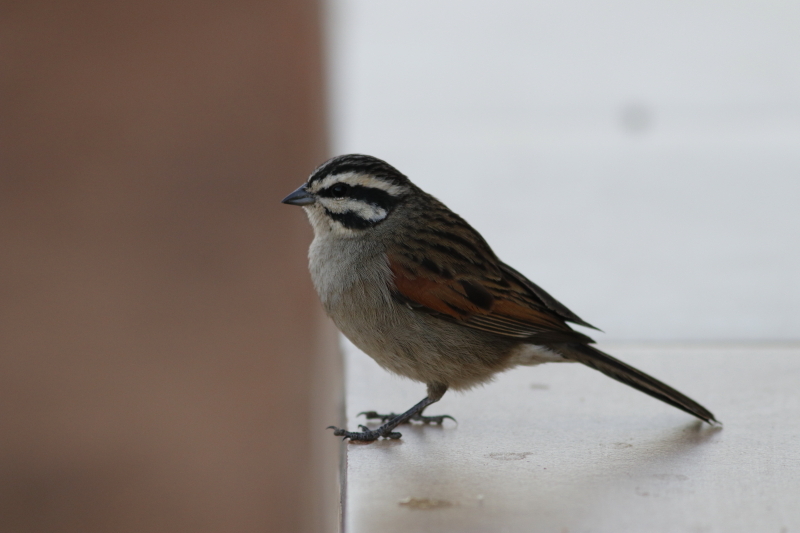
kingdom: Animalia
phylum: Chordata
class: Aves
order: Passeriformes
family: Emberizidae
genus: Emberiza
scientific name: Emberiza capensis
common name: Cape bunting
